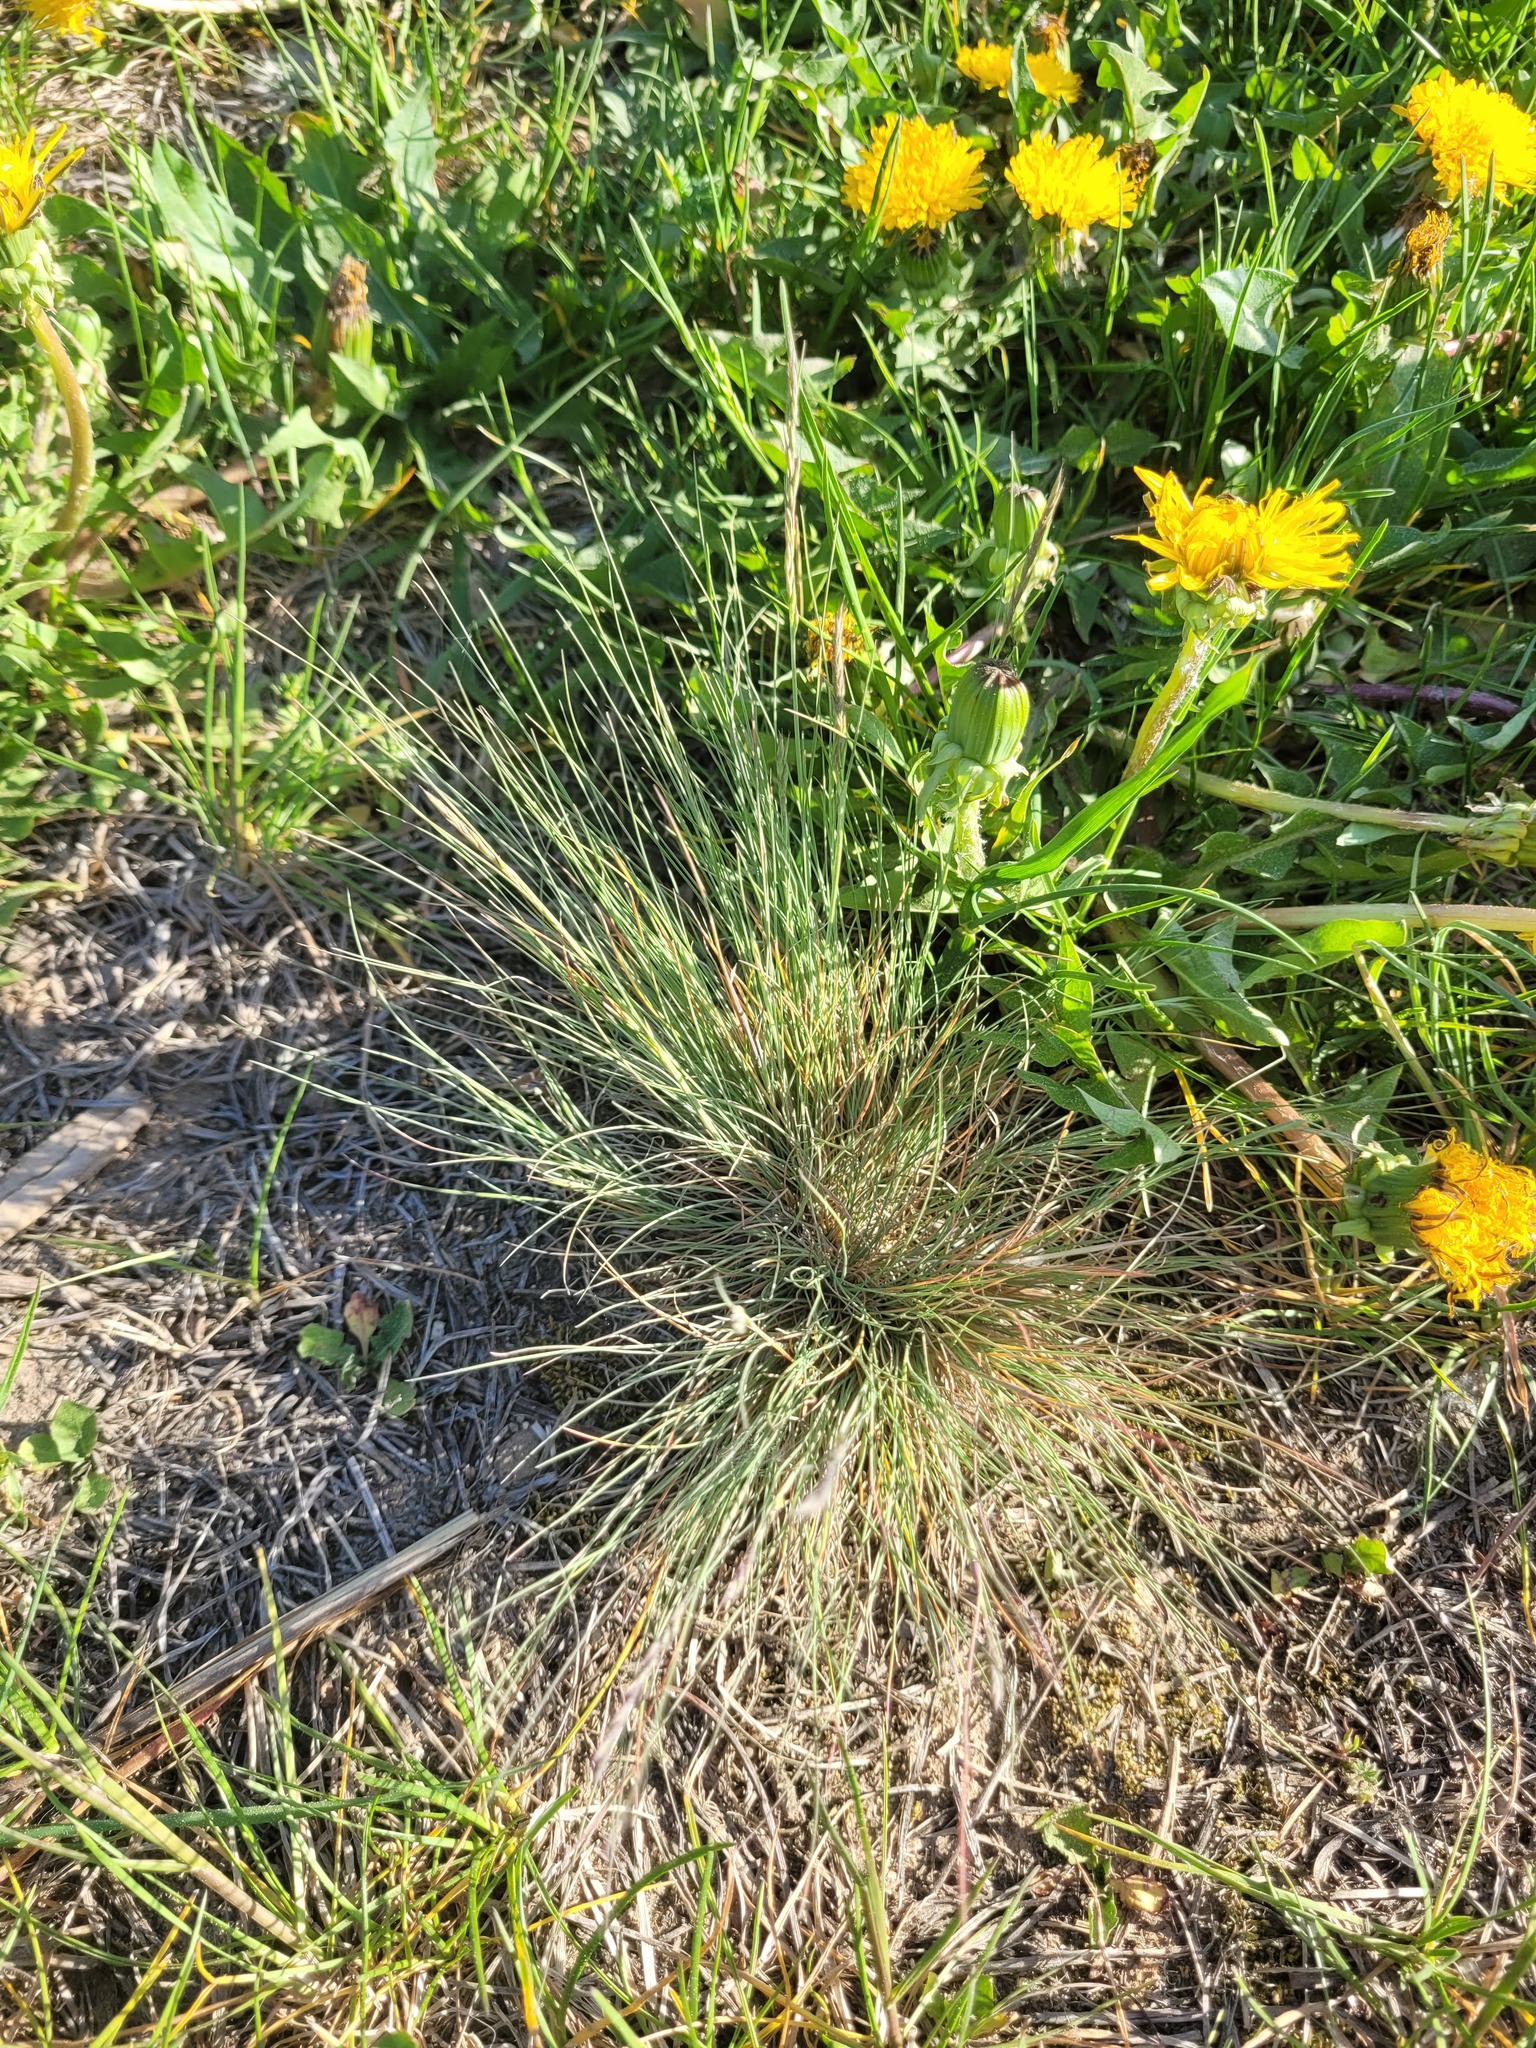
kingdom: Plantae
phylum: Tracheophyta
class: Liliopsida
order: Poales
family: Poaceae
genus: Festuca
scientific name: Festuca valesiaca
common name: Volga fescue
